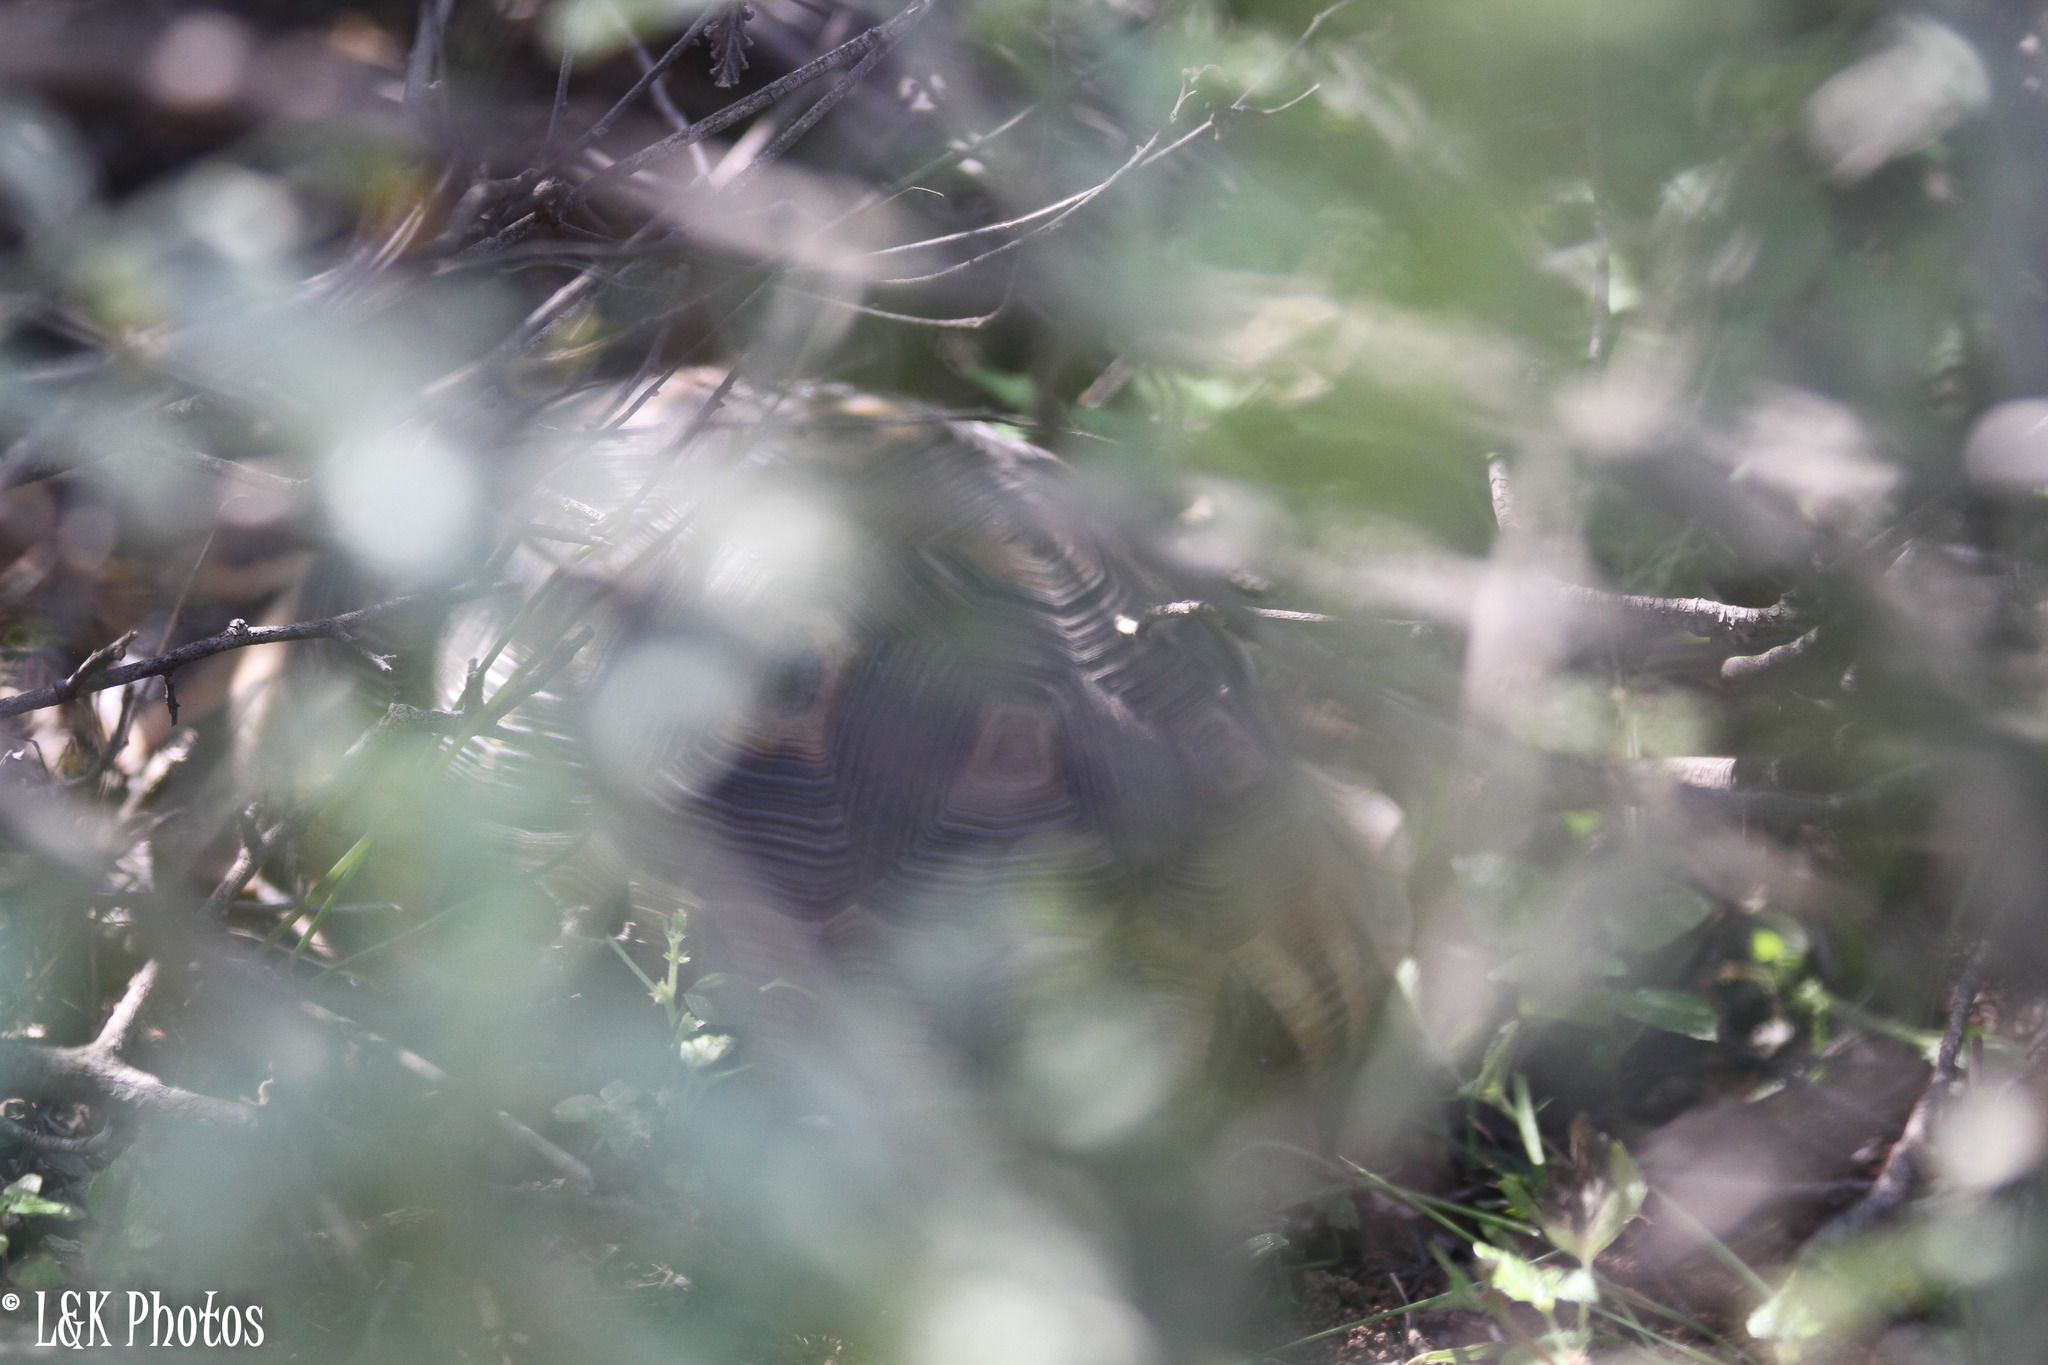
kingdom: Animalia
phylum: Chordata
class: Testudines
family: Testudinidae
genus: Chersina
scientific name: Chersina angulata
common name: South african bowsprit tortoise
